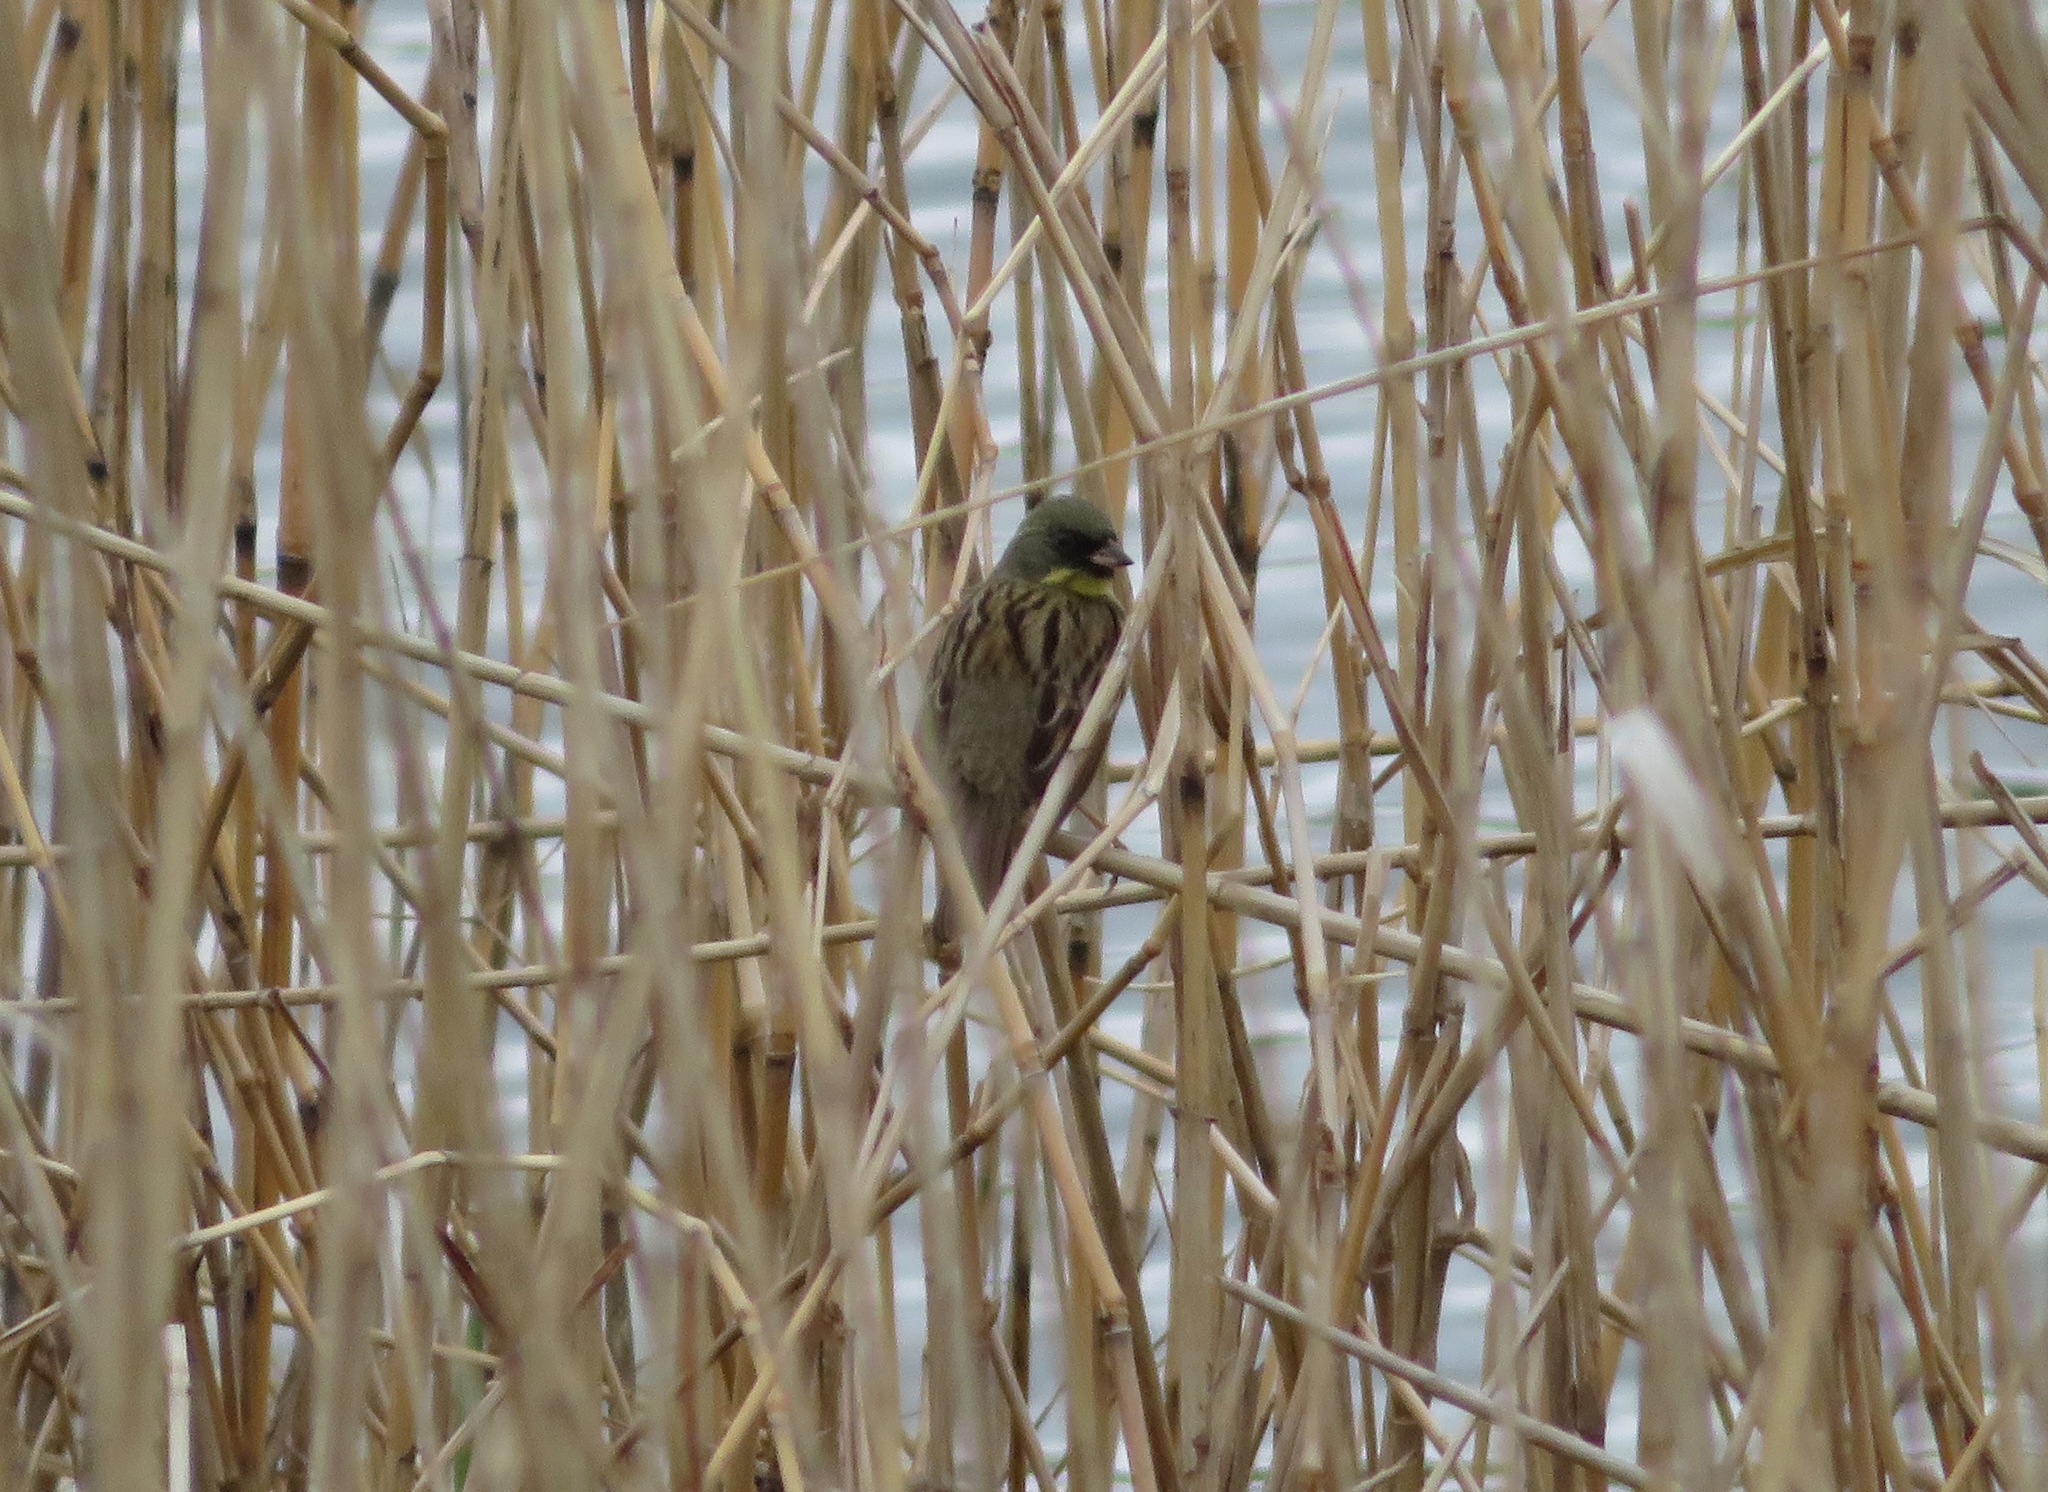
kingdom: Animalia
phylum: Chordata
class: Aves
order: Passeriformes
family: Emberizidae
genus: Emberiza
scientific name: Emberiza personata
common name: Masked bunting
